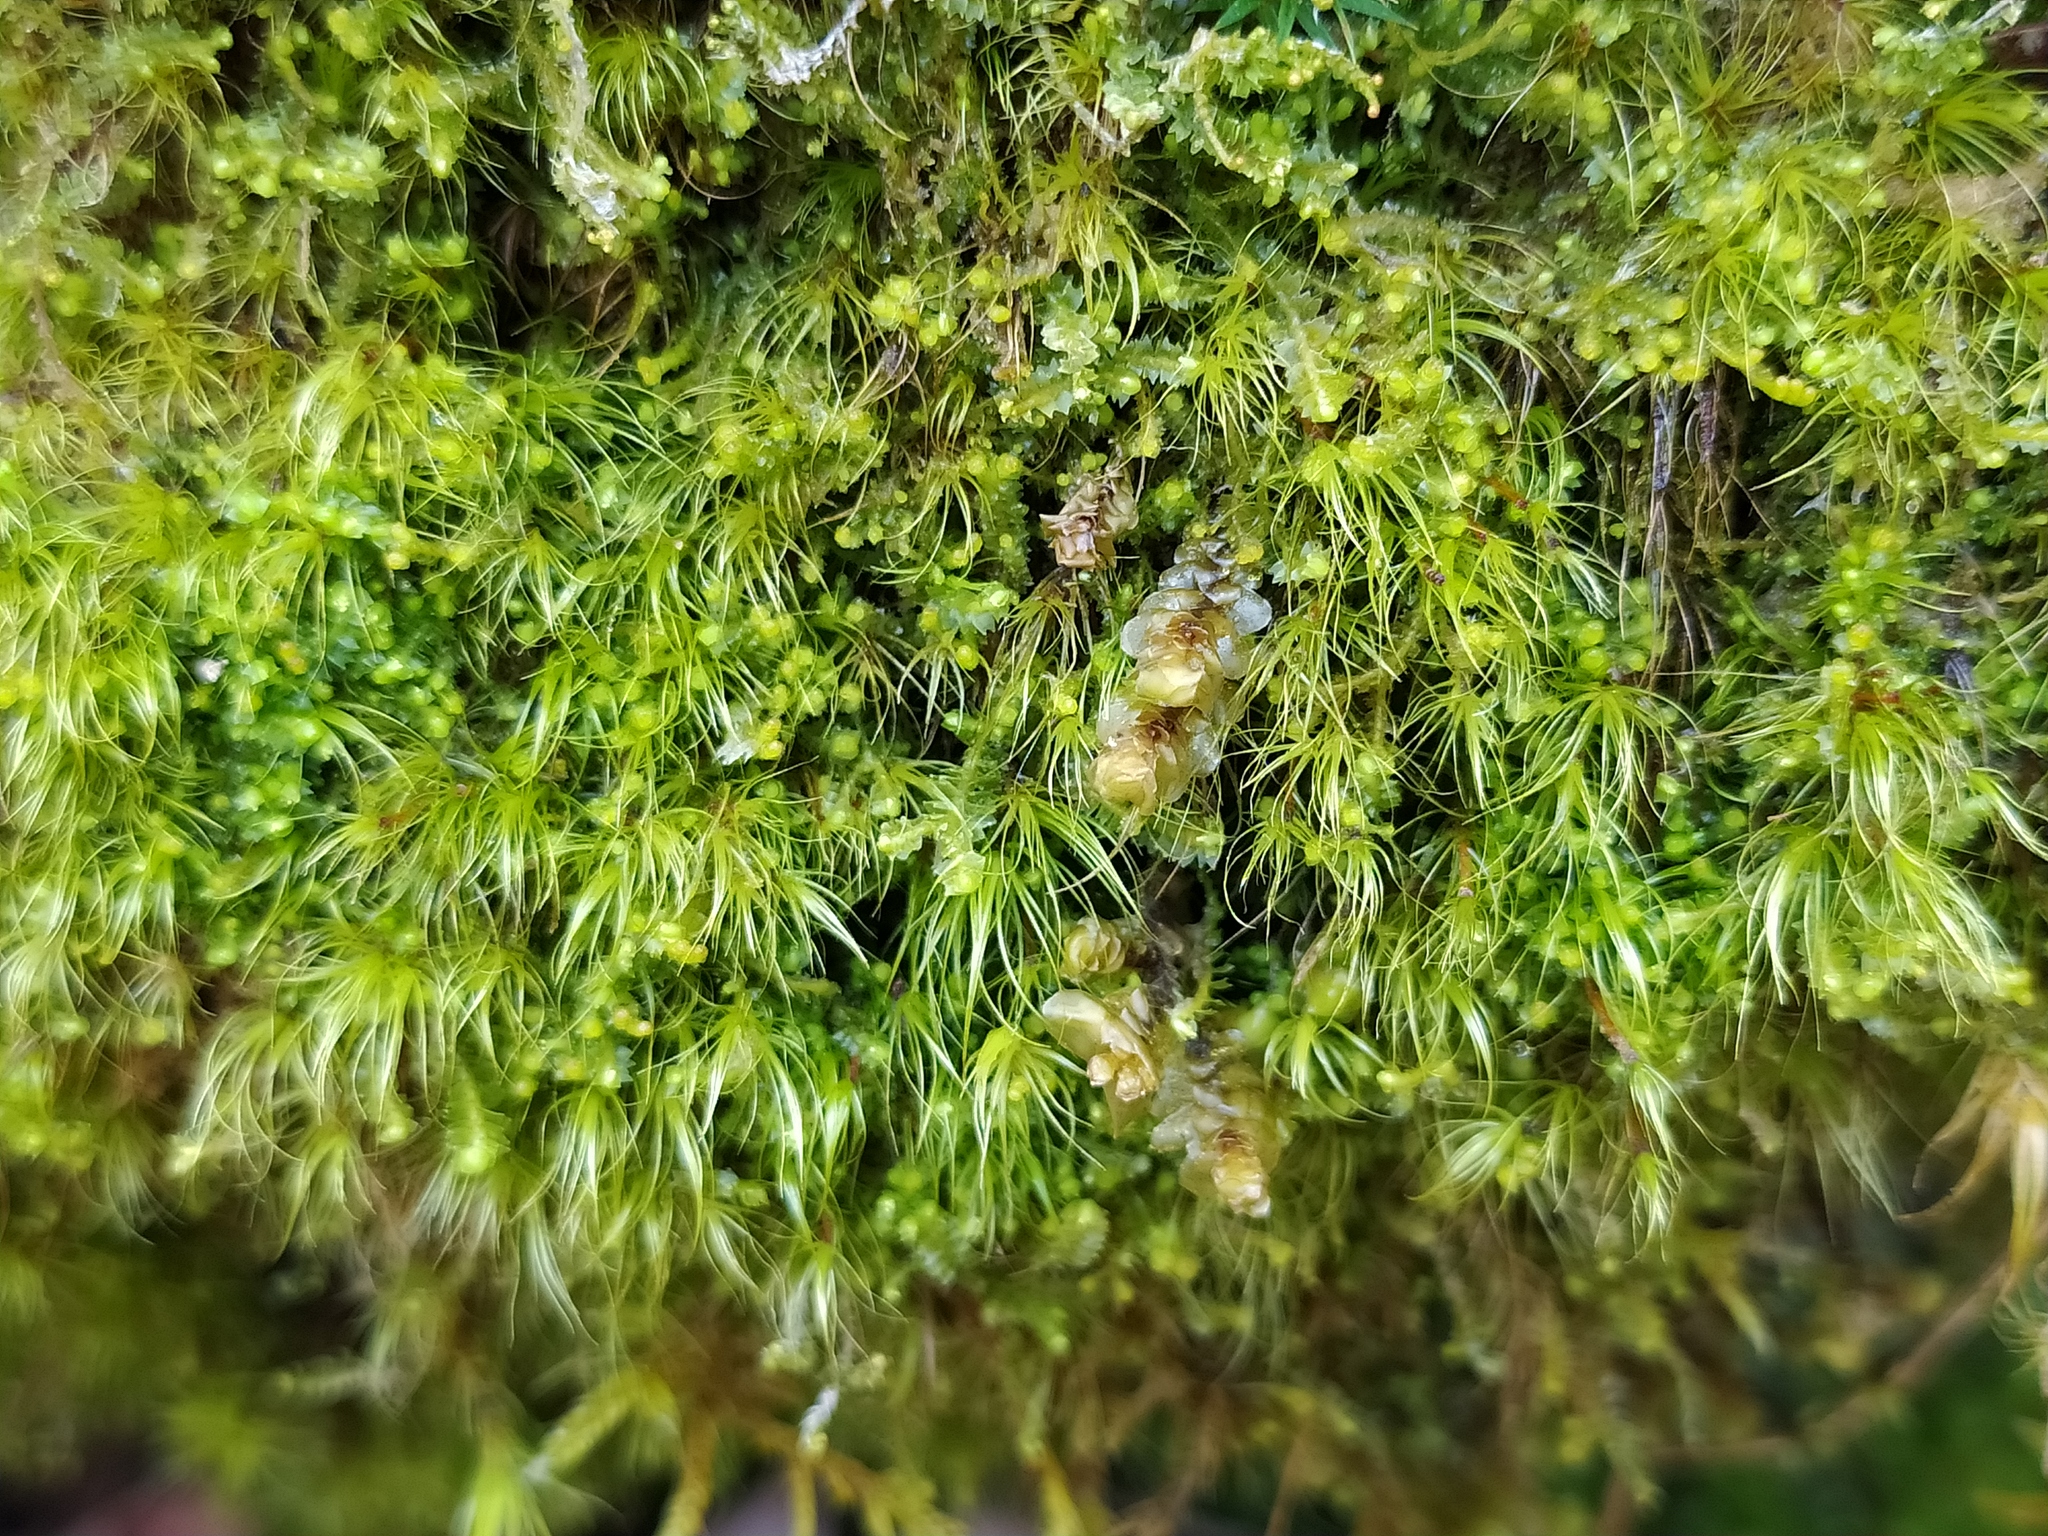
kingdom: Plantae
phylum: Marchantiophyta
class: Jungermanniopsida
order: Jungermanniales
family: Scapaniaceae
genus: Scapania
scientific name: Scapania nemorea
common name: Grove earwort
